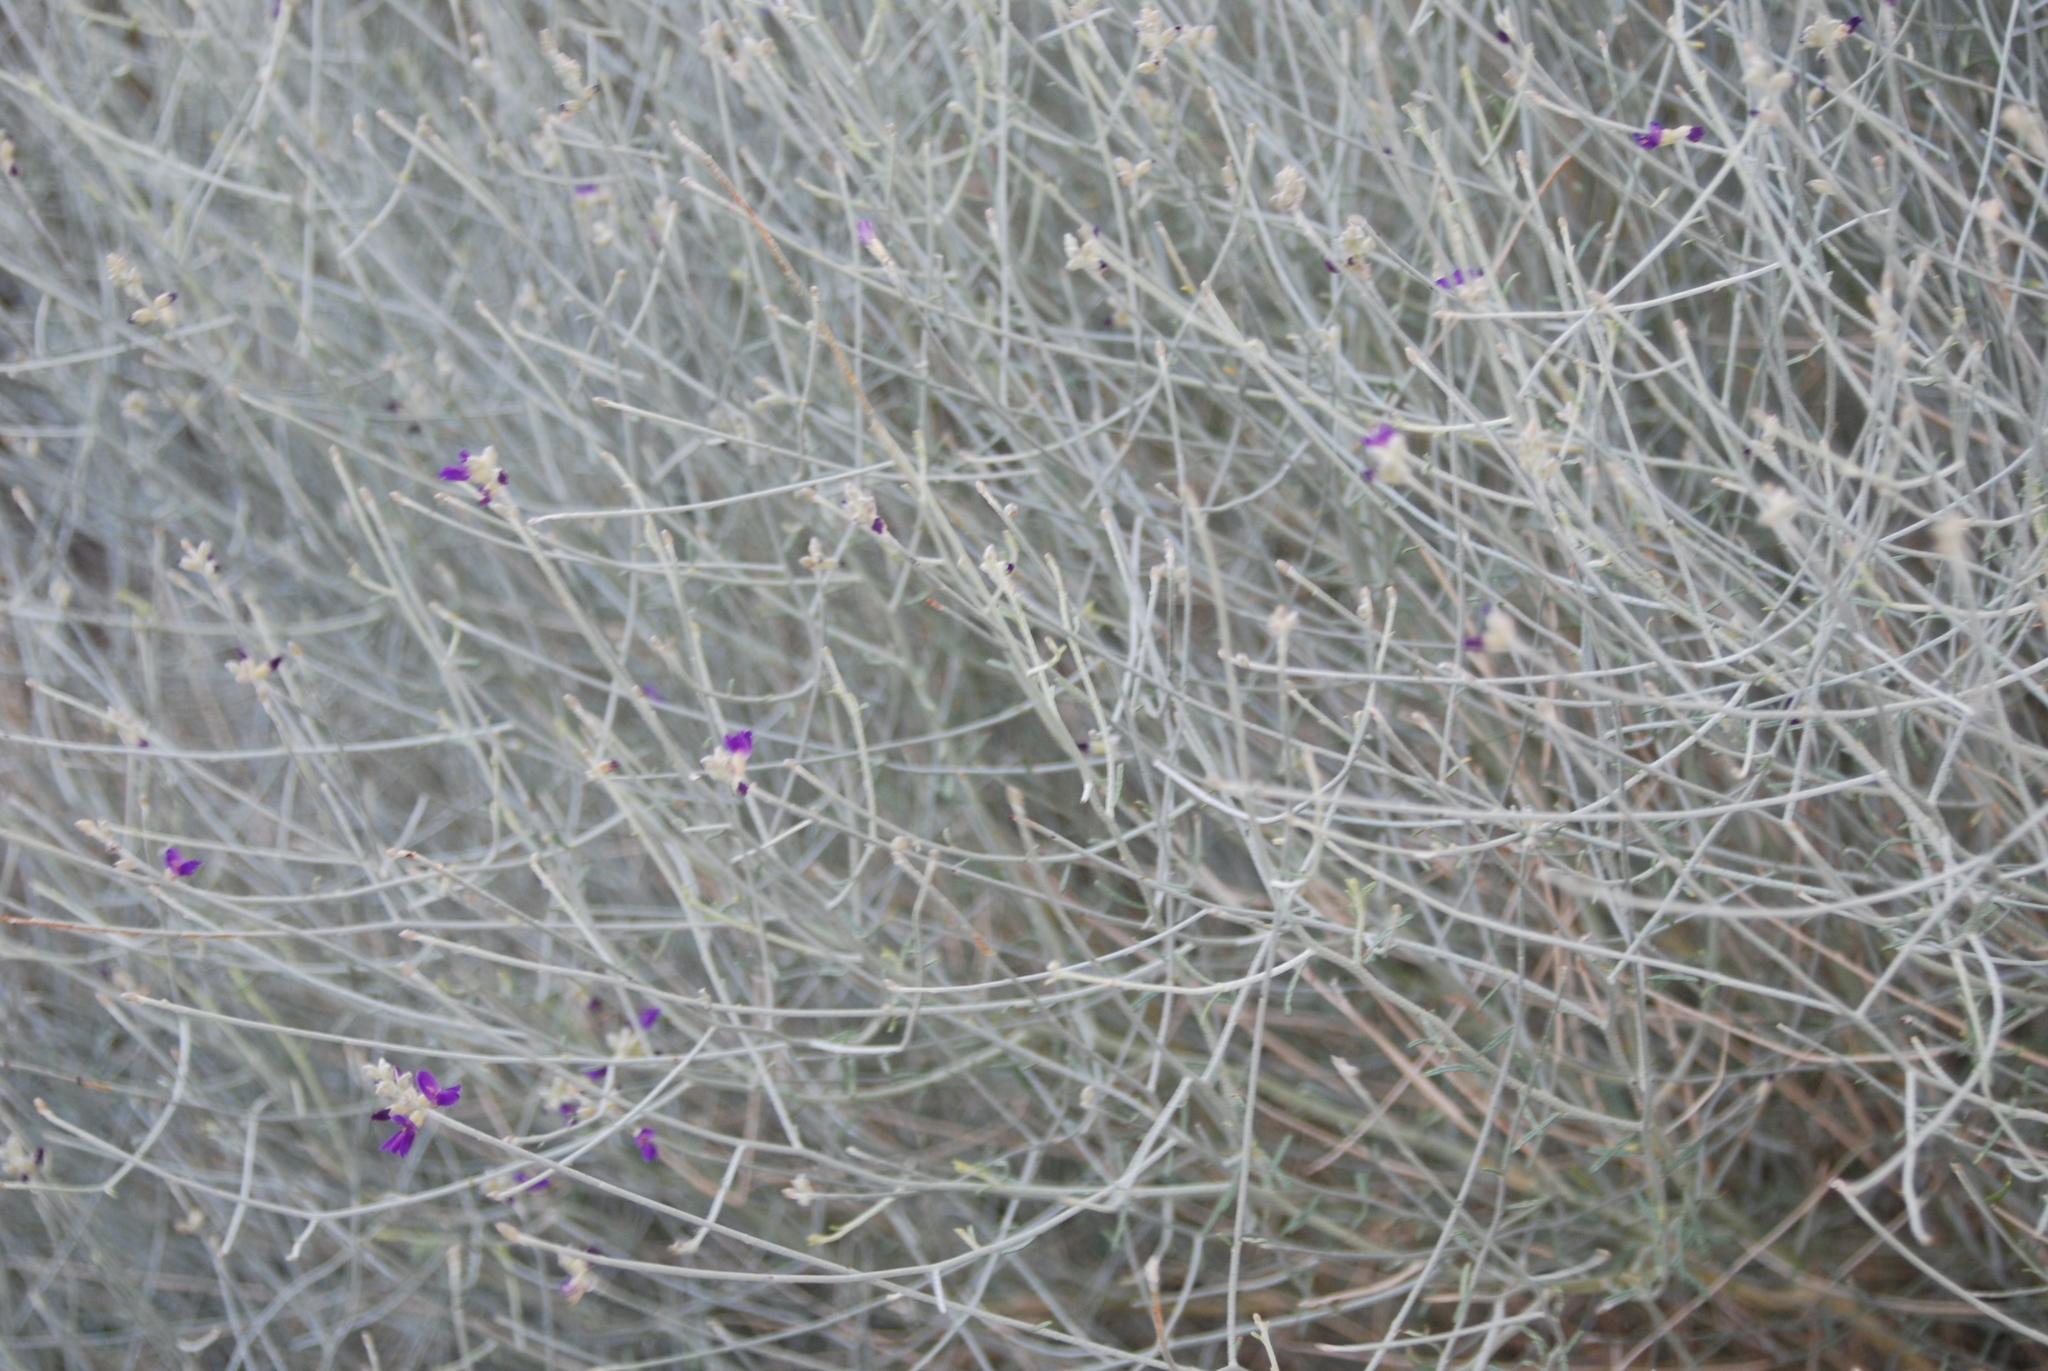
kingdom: Plantae
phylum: Tracheophyta
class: Magnoliopsida
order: Fabales
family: Fabaceae
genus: Psorothamnus
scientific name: Psorothamnus scoparius
